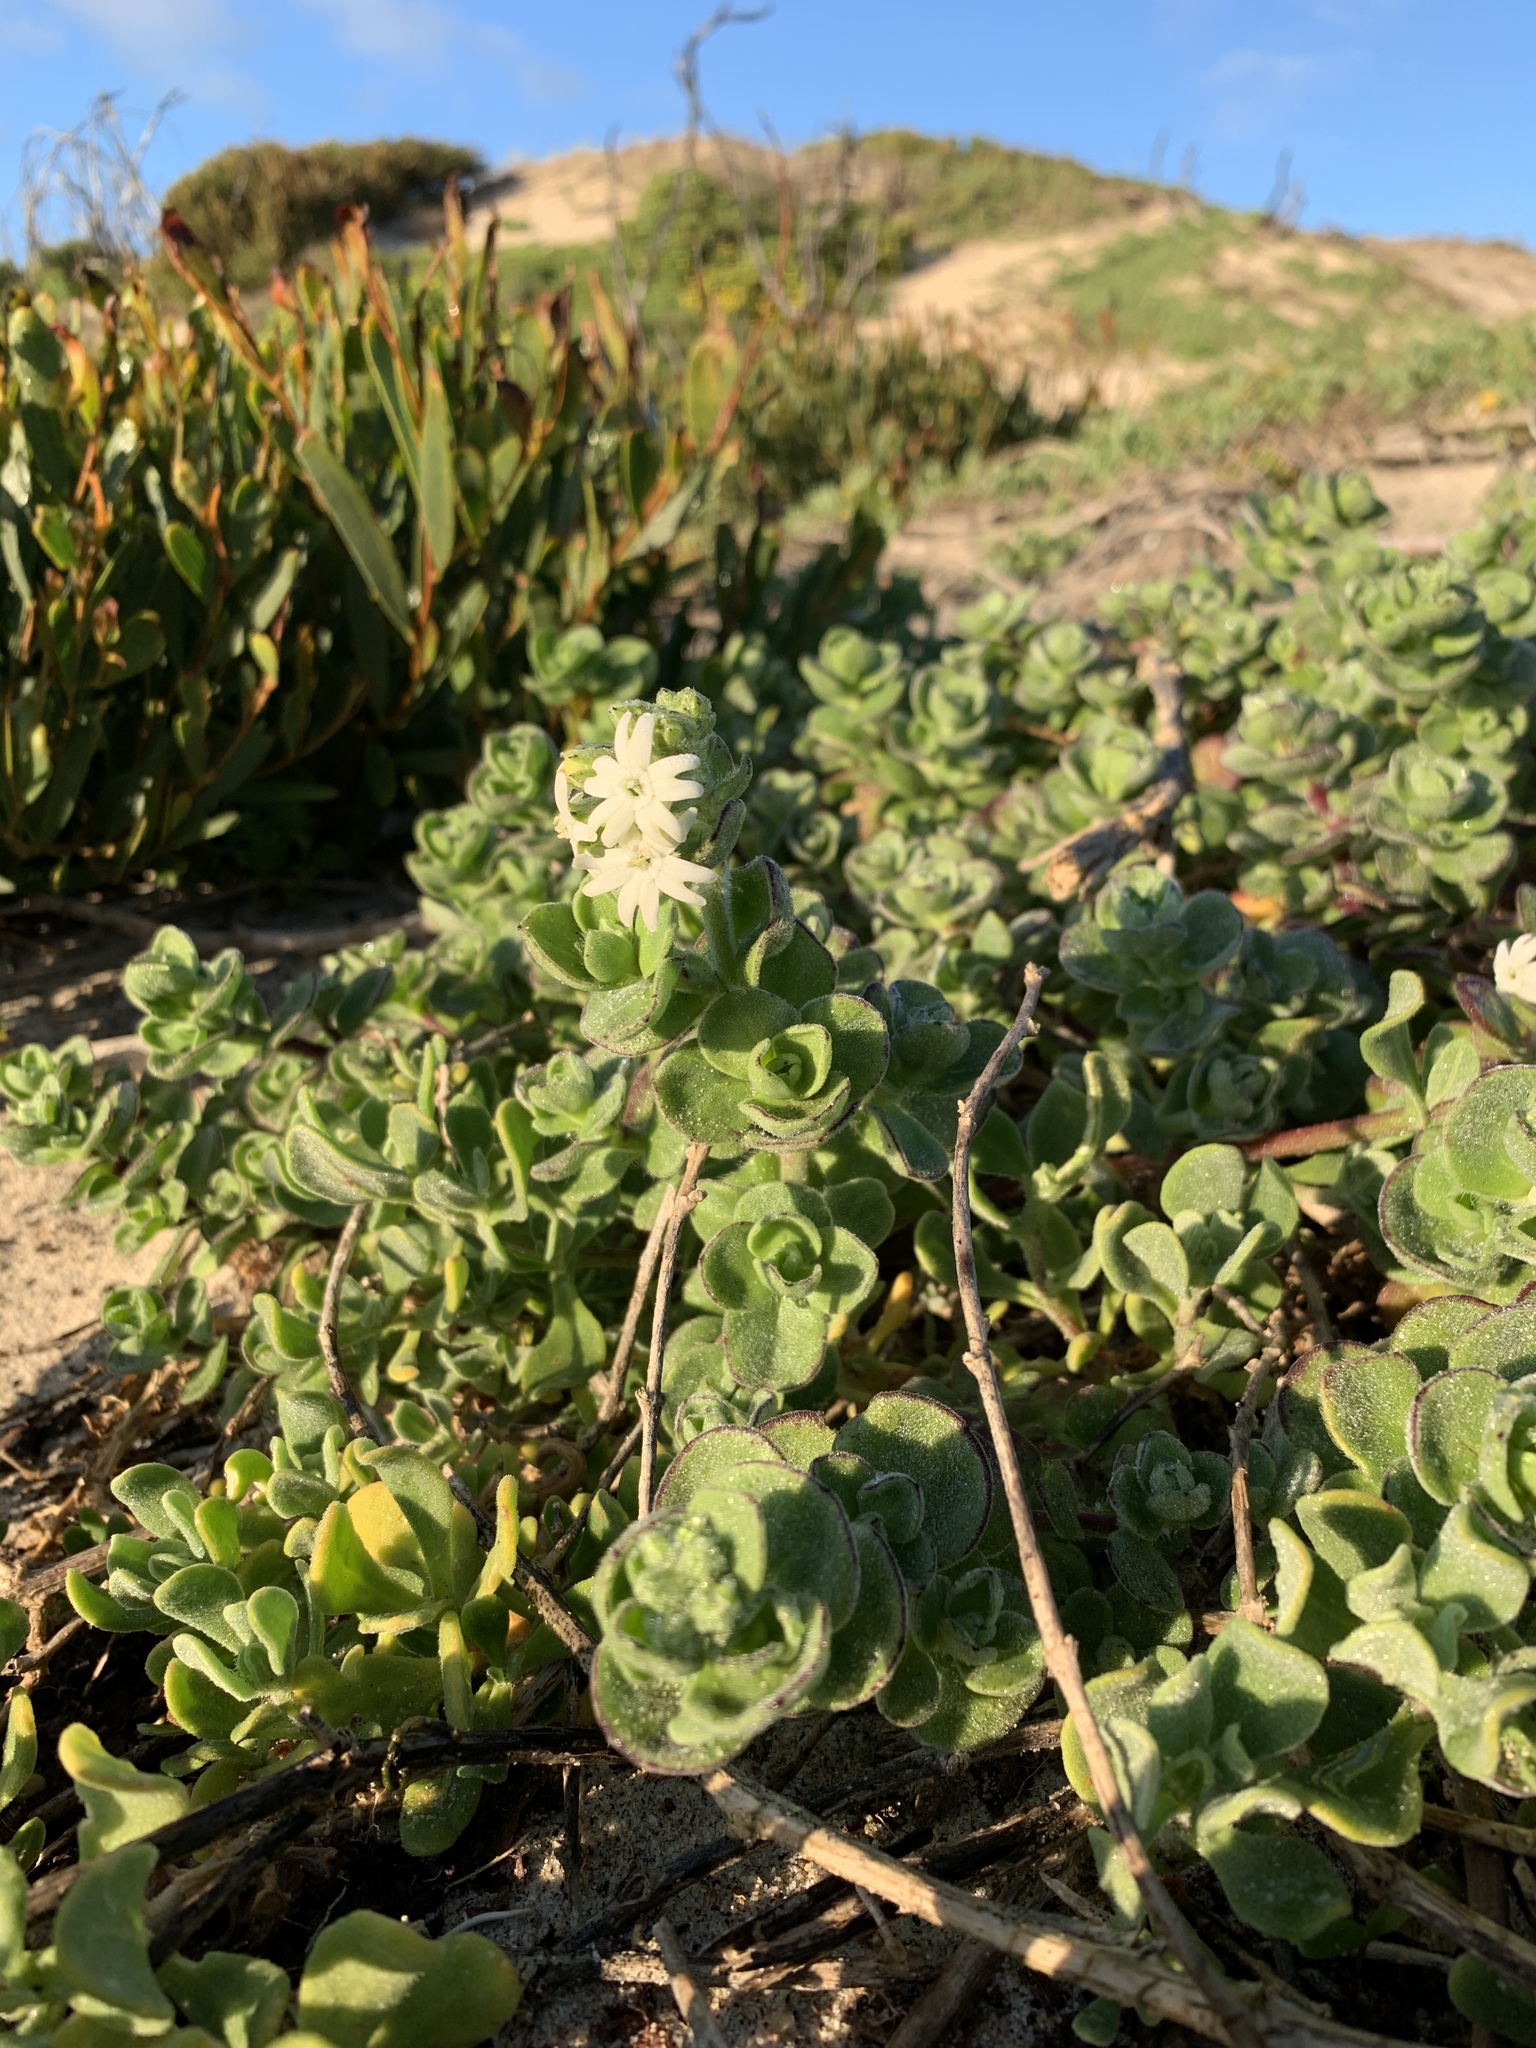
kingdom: Plantae
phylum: Tracheophyta
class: Magnoliopsida
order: Caryophyllales
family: Caryophyllaceae
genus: Silene
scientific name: Silene crassifolia
